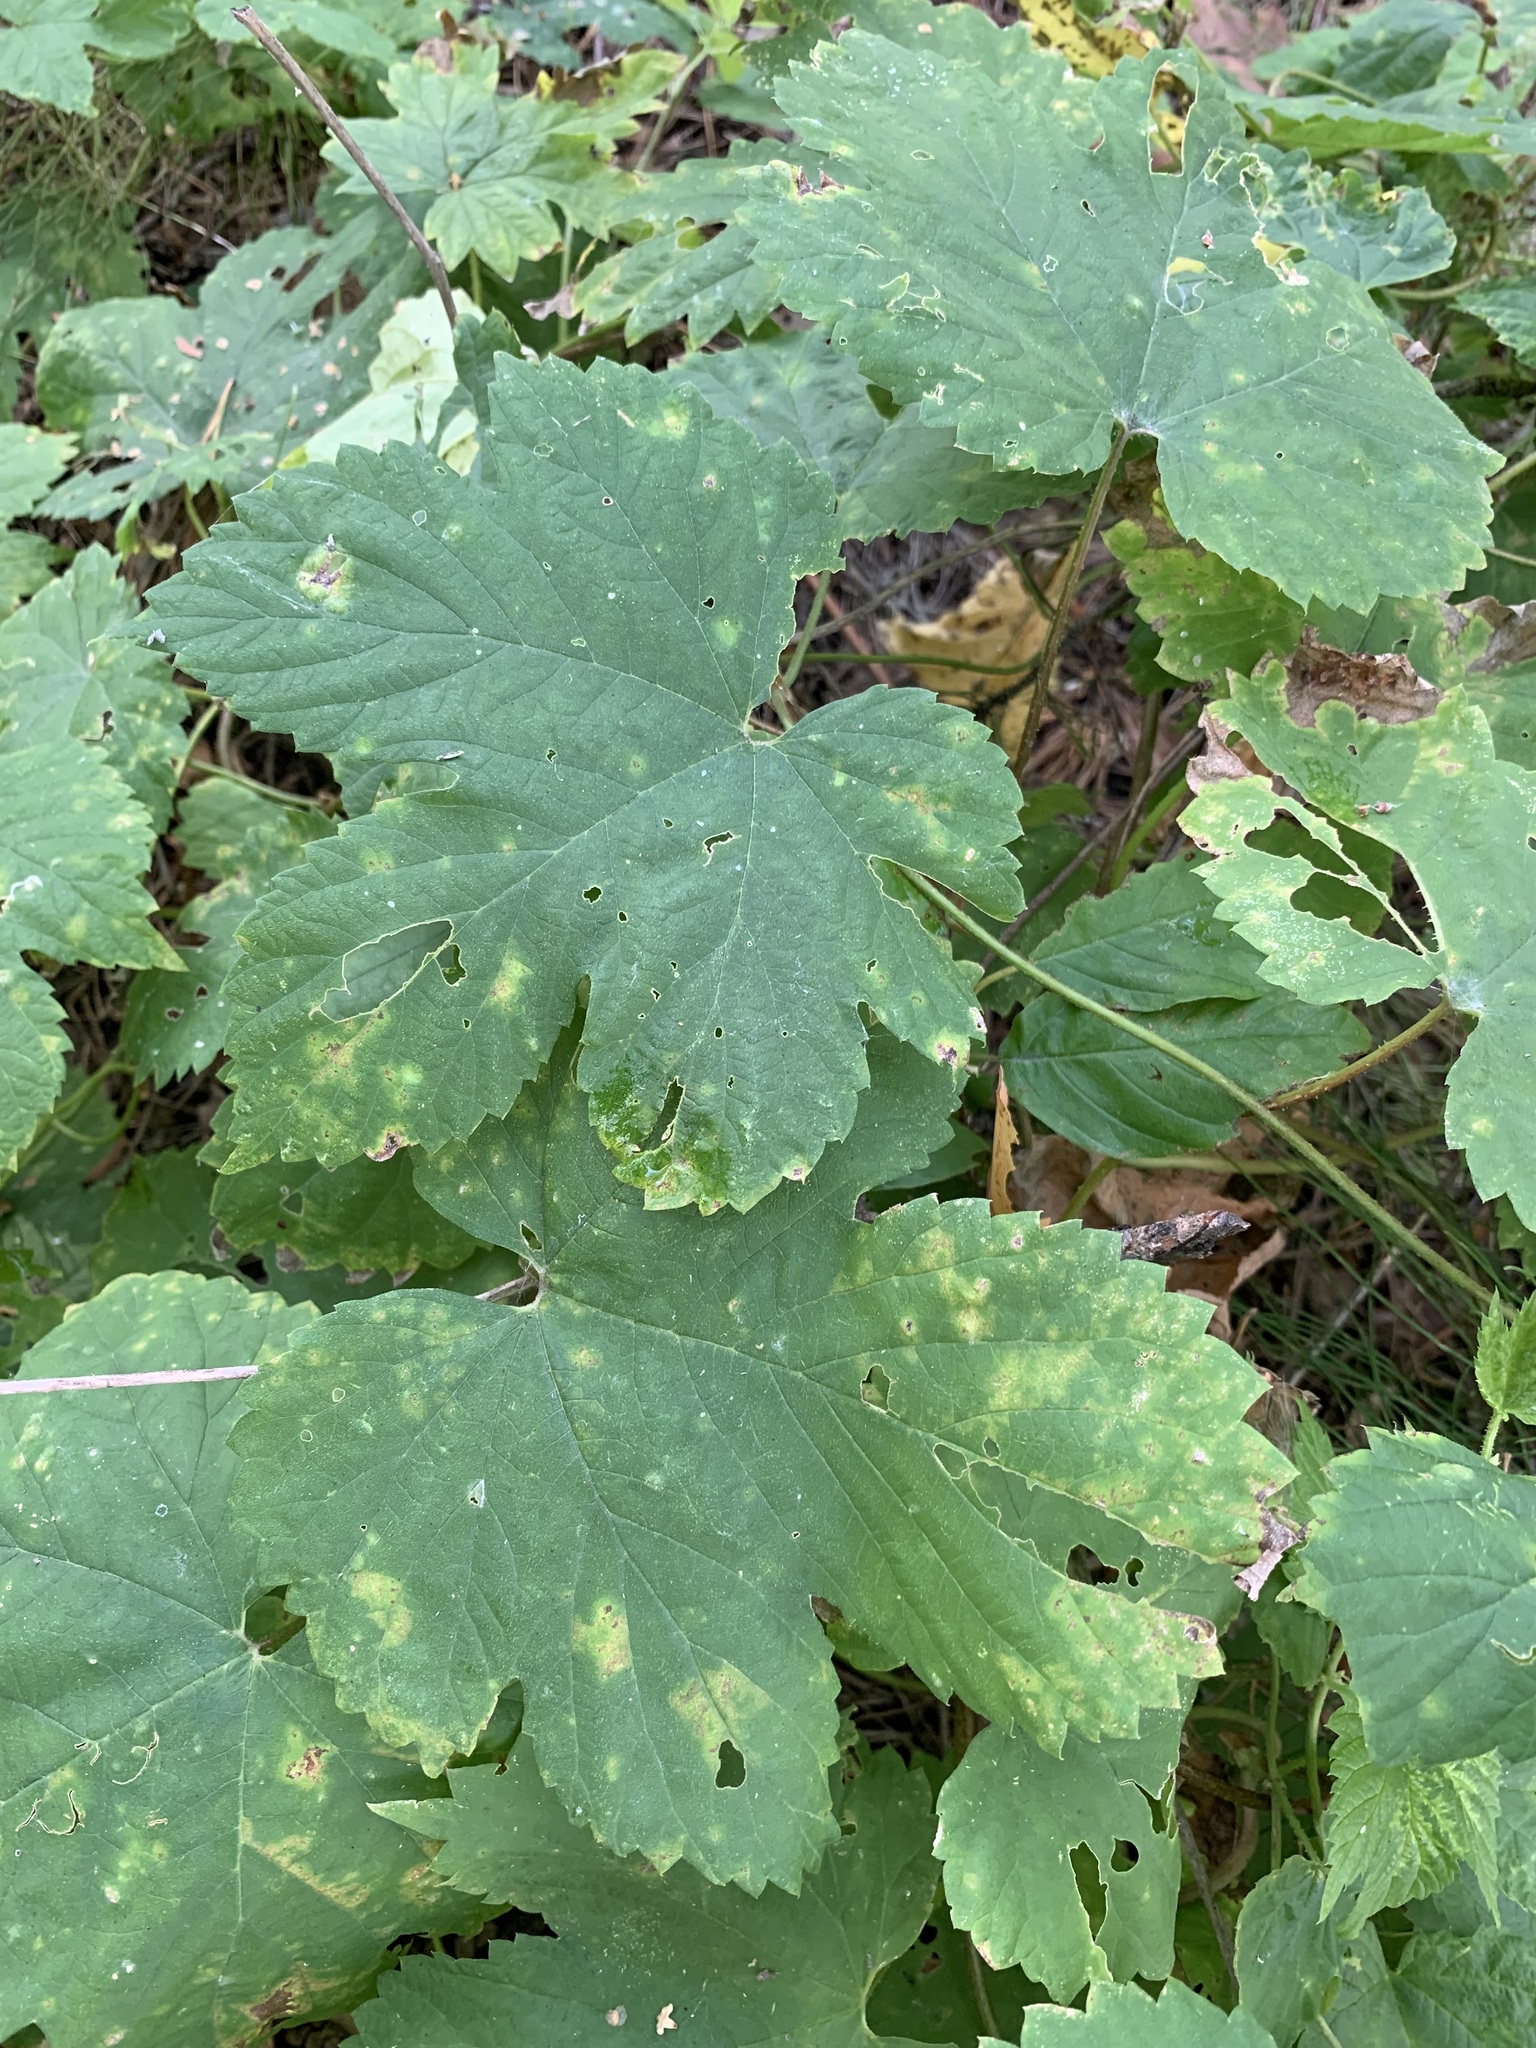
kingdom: Plantae
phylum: Tracheophyta
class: Magnoliopsida
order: Rosales
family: Cannabaceae
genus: Humulus
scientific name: Humulus lupulus
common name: Hop
